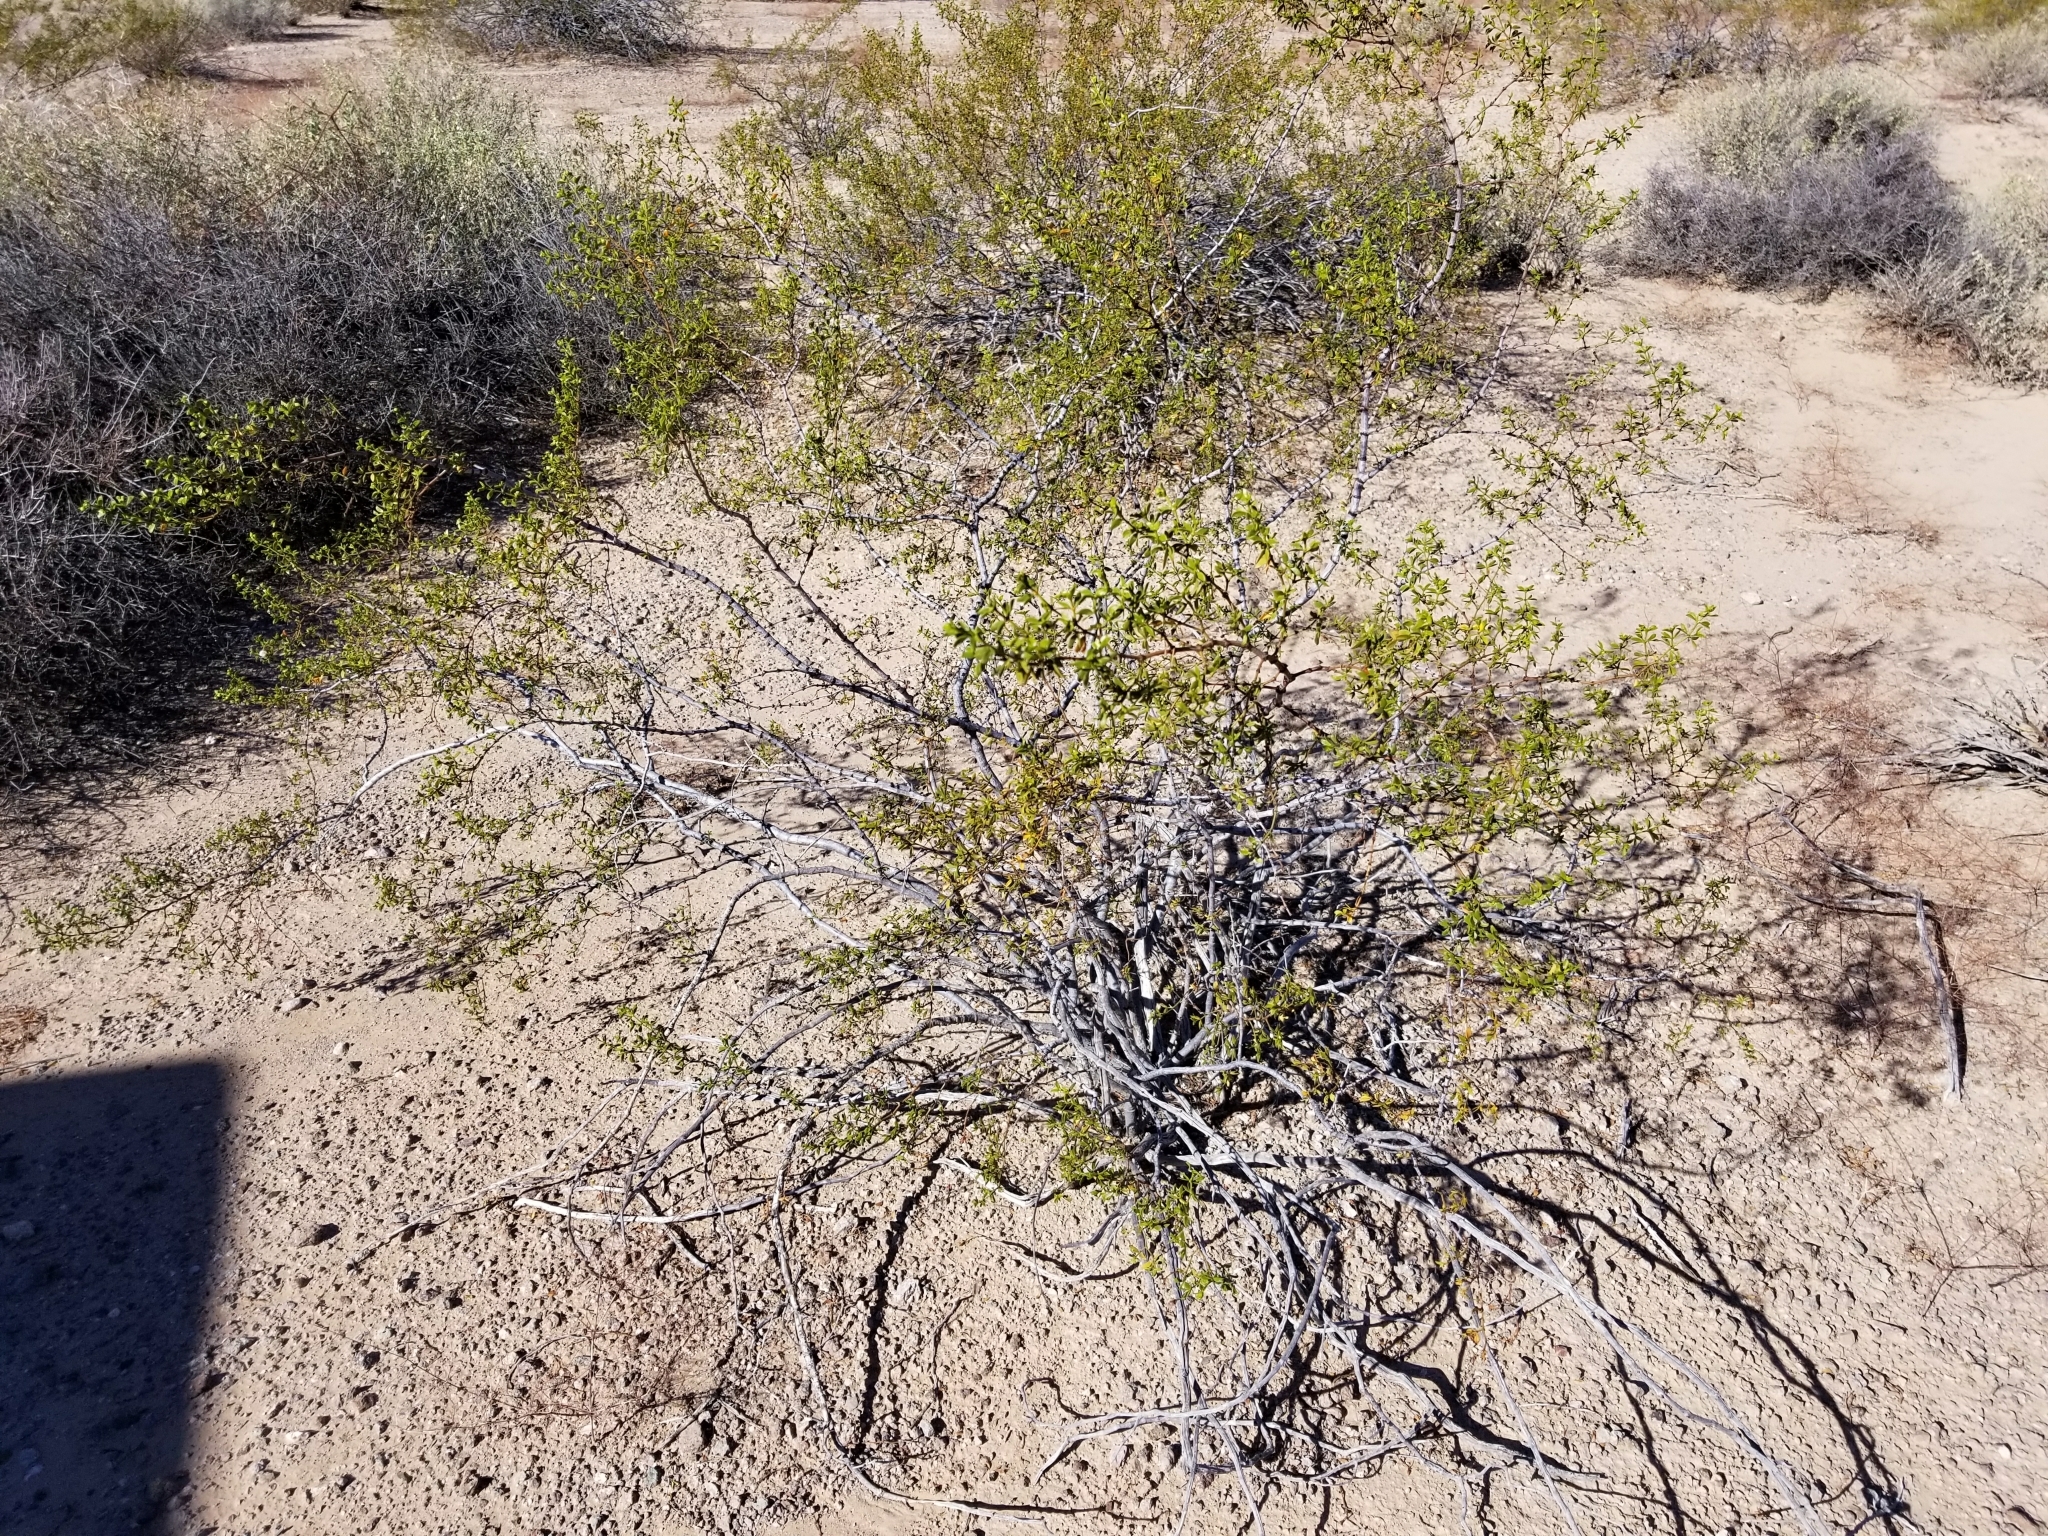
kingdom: Plantae
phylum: Tracheophyta
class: Magnoliopsida
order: Zygophyllales
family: Zygophyllaceae
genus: Larrea
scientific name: Larrea tridentata
